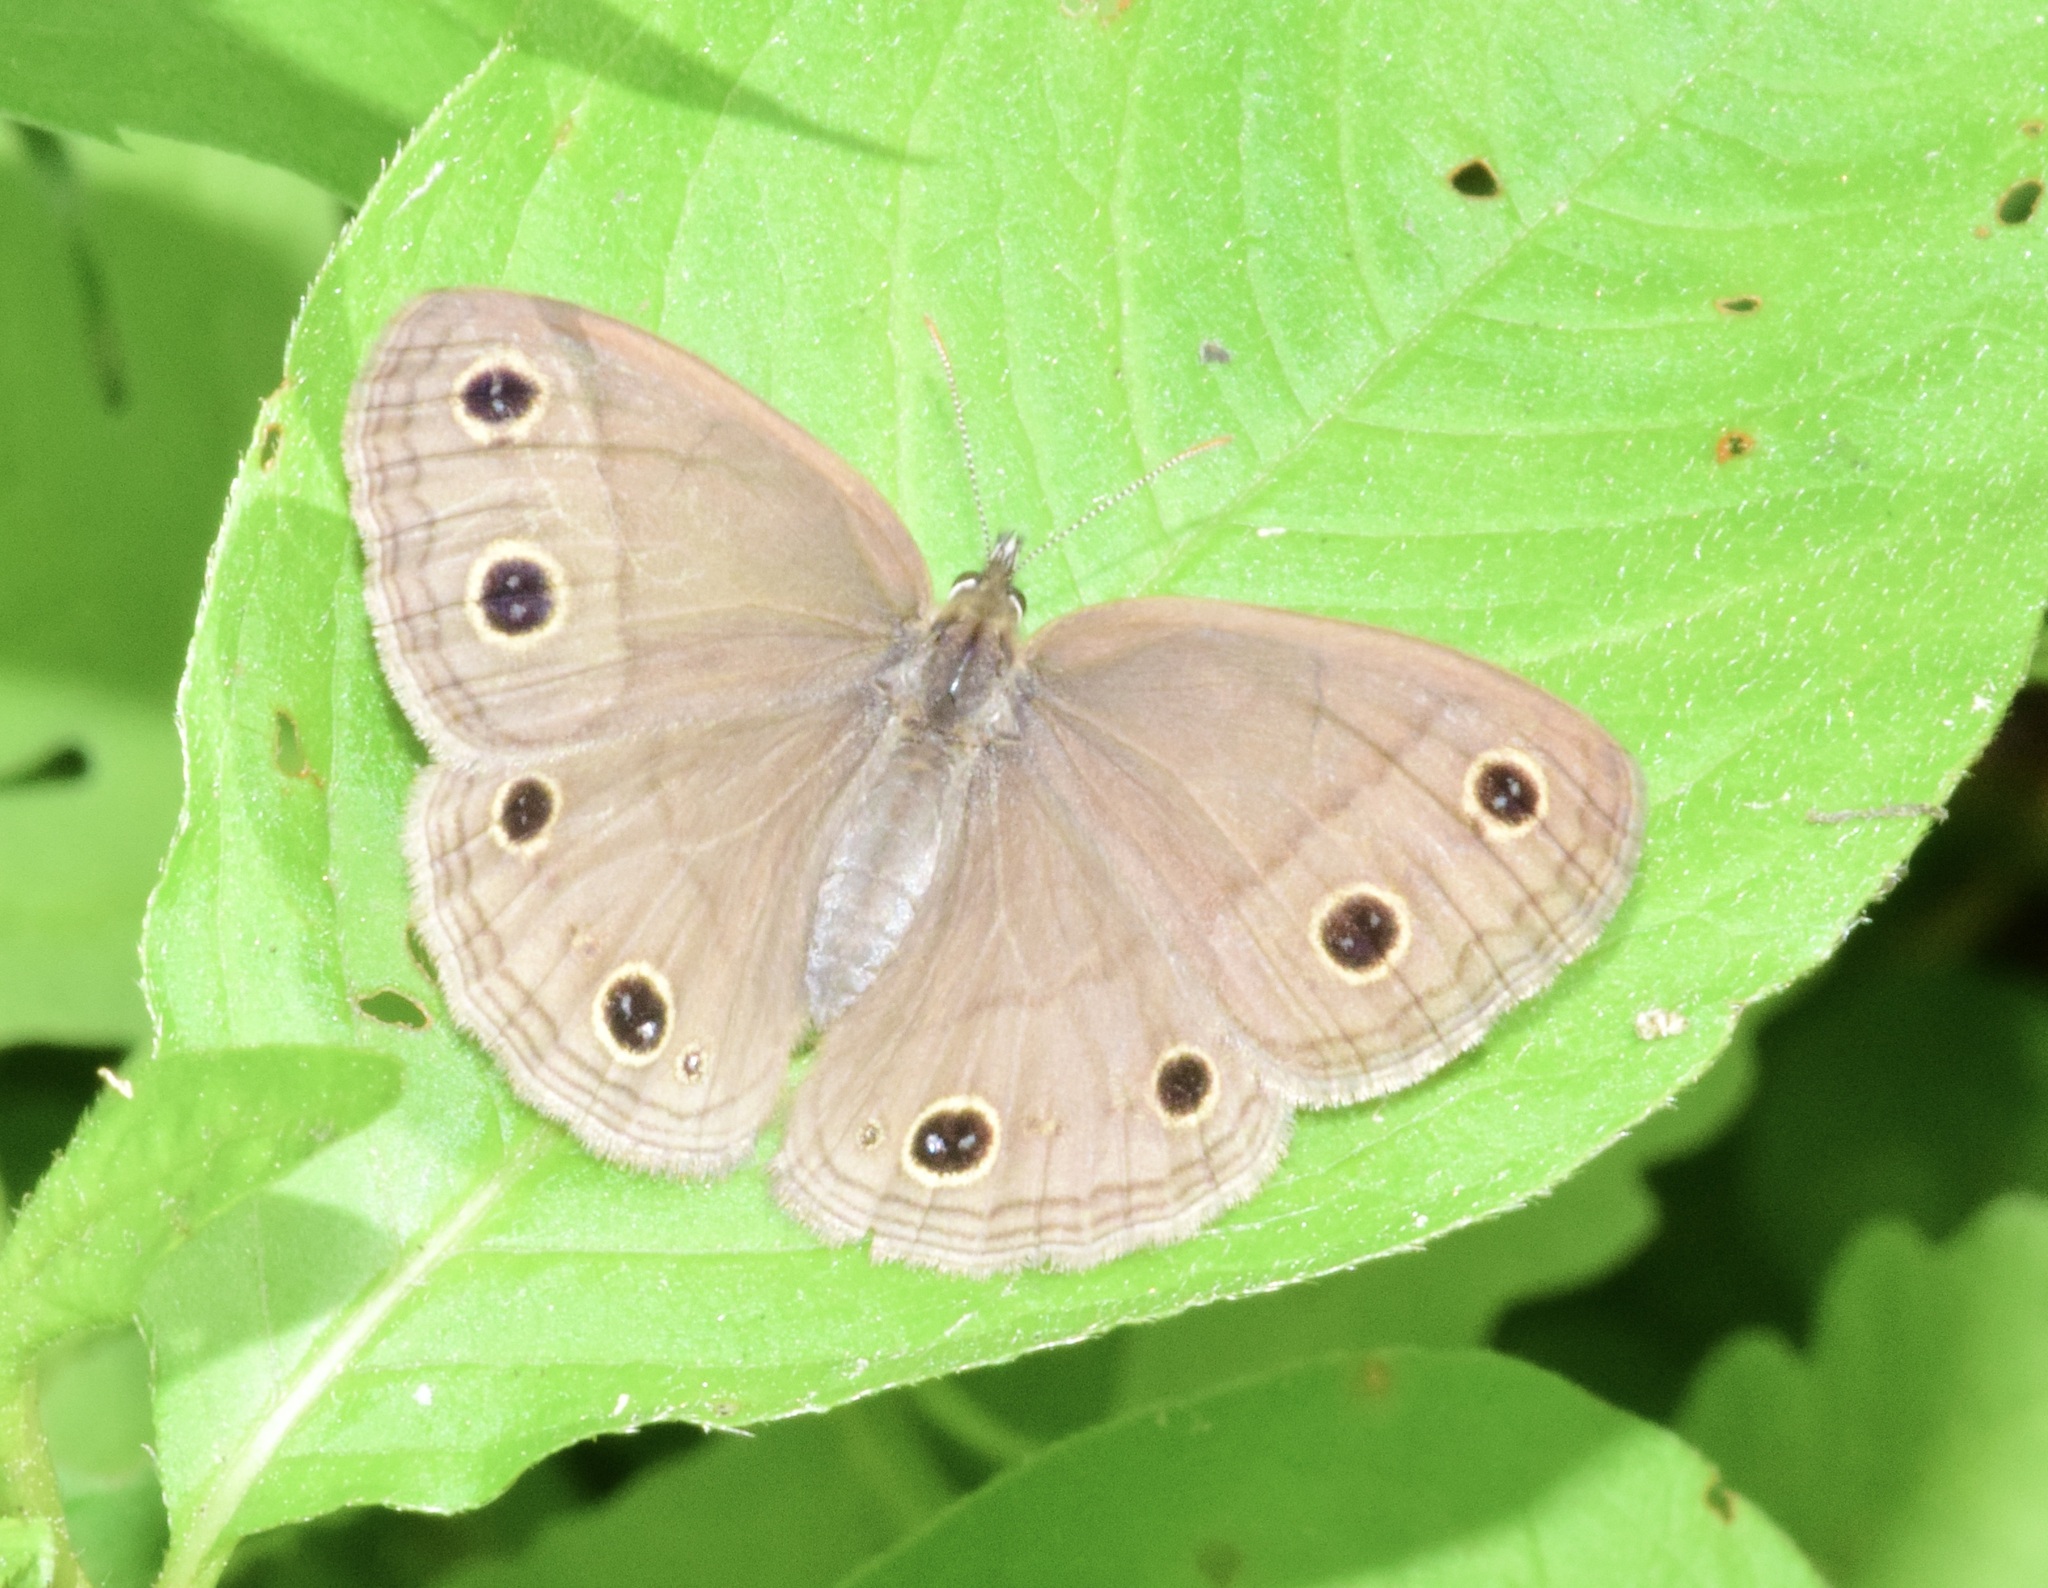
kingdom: Animalia
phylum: Arthropoda
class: Insecta
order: Lepidoptera
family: Nymphalidae
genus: Euptychia
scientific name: Euptychia cymela
